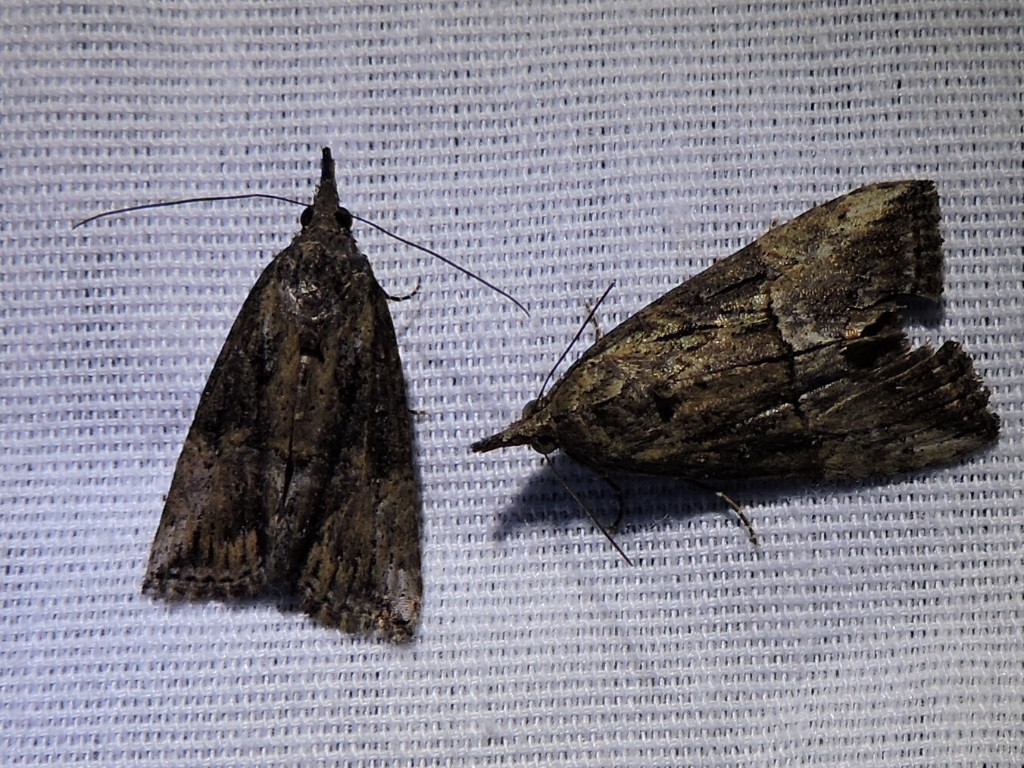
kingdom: Animalia
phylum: Arthropoda
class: Insecta
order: Lepidoptera
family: Erebidae
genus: Hypena
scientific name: Hypena scabra
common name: Green cloverworm
